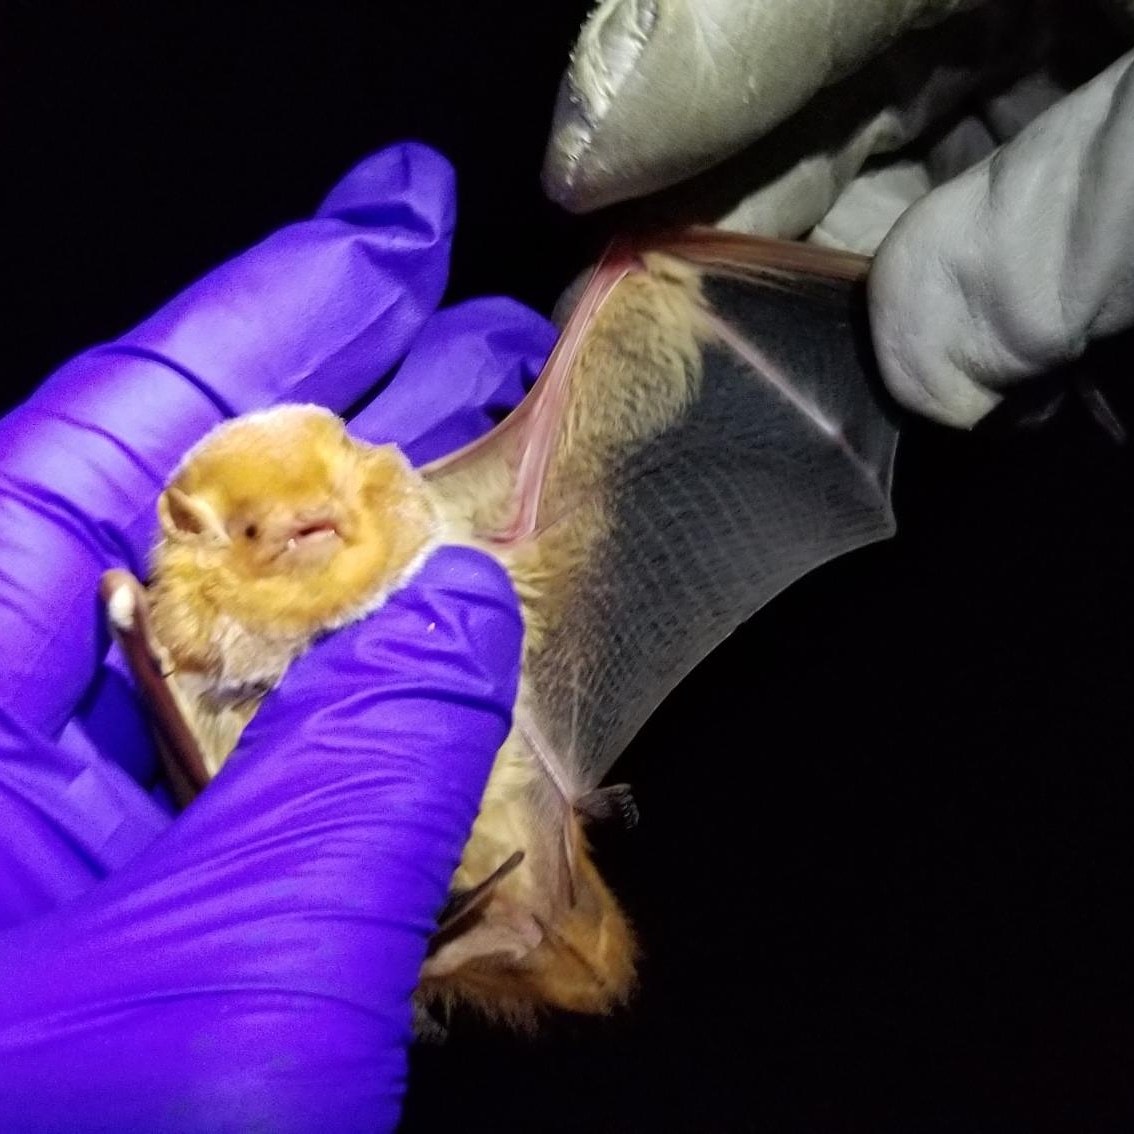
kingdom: Animalia
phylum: Chordata
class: Mammalia
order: Chiroptera
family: Vespertilionidae
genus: Lasiurus
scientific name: Lasiurus borealis
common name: Eastern red bat
